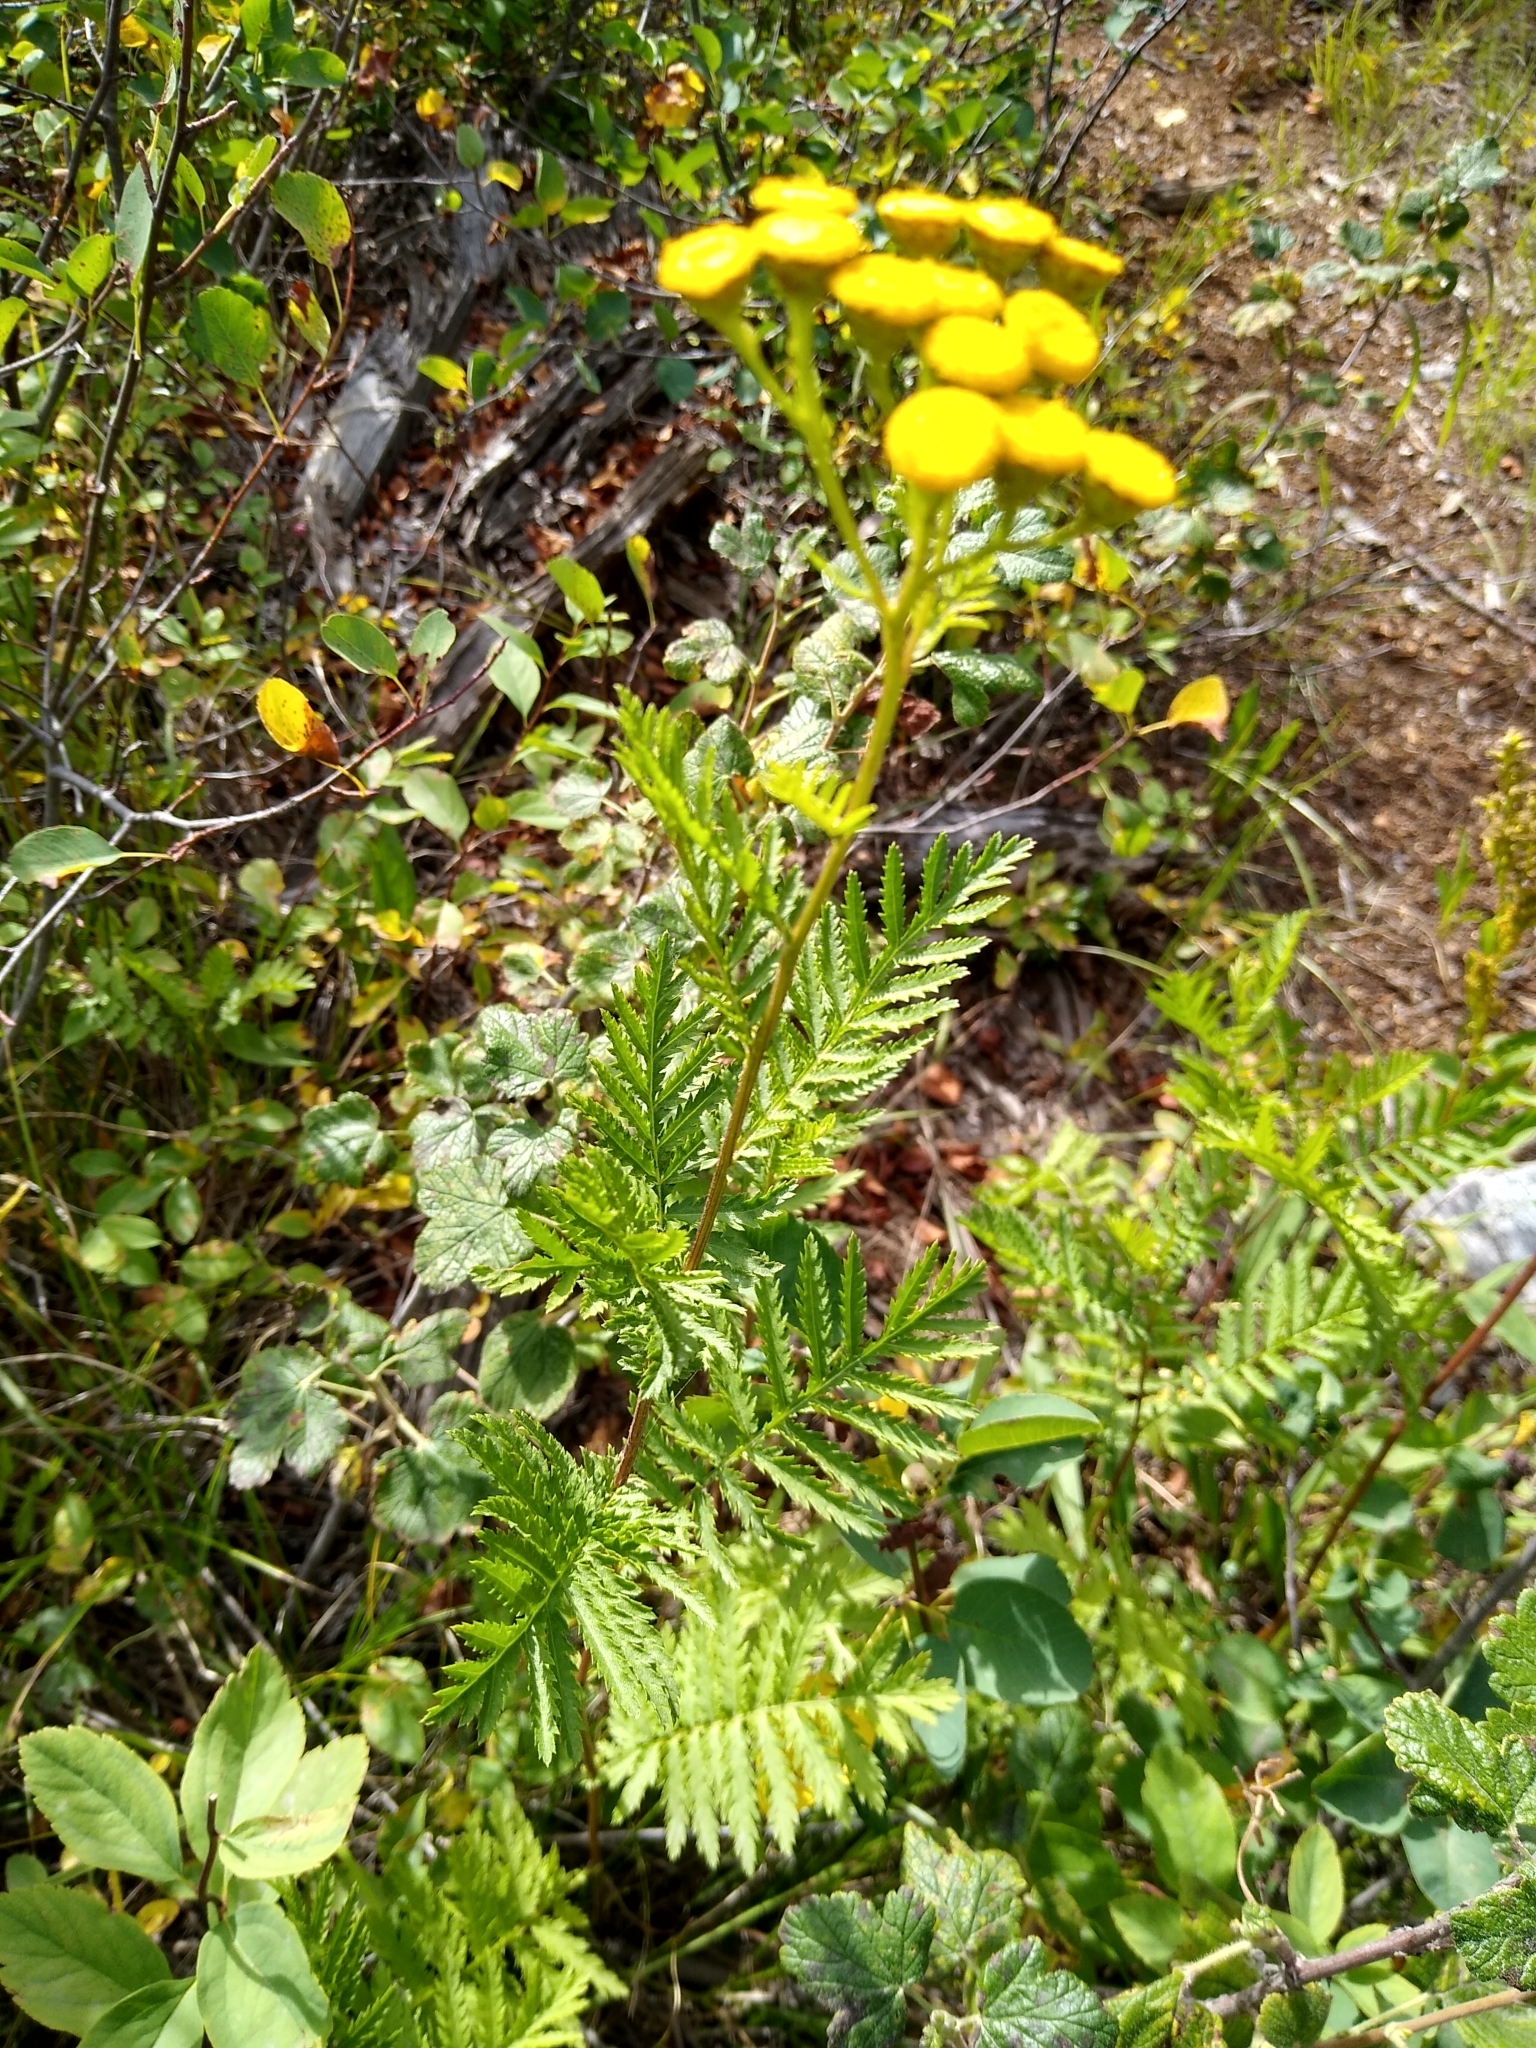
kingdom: Plantae
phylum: Tracheophyta
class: Magnoliopsida
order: Asterales
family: Asteraceae
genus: Tanacetum
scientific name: Tanacetum vulgare
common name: Common tansy
